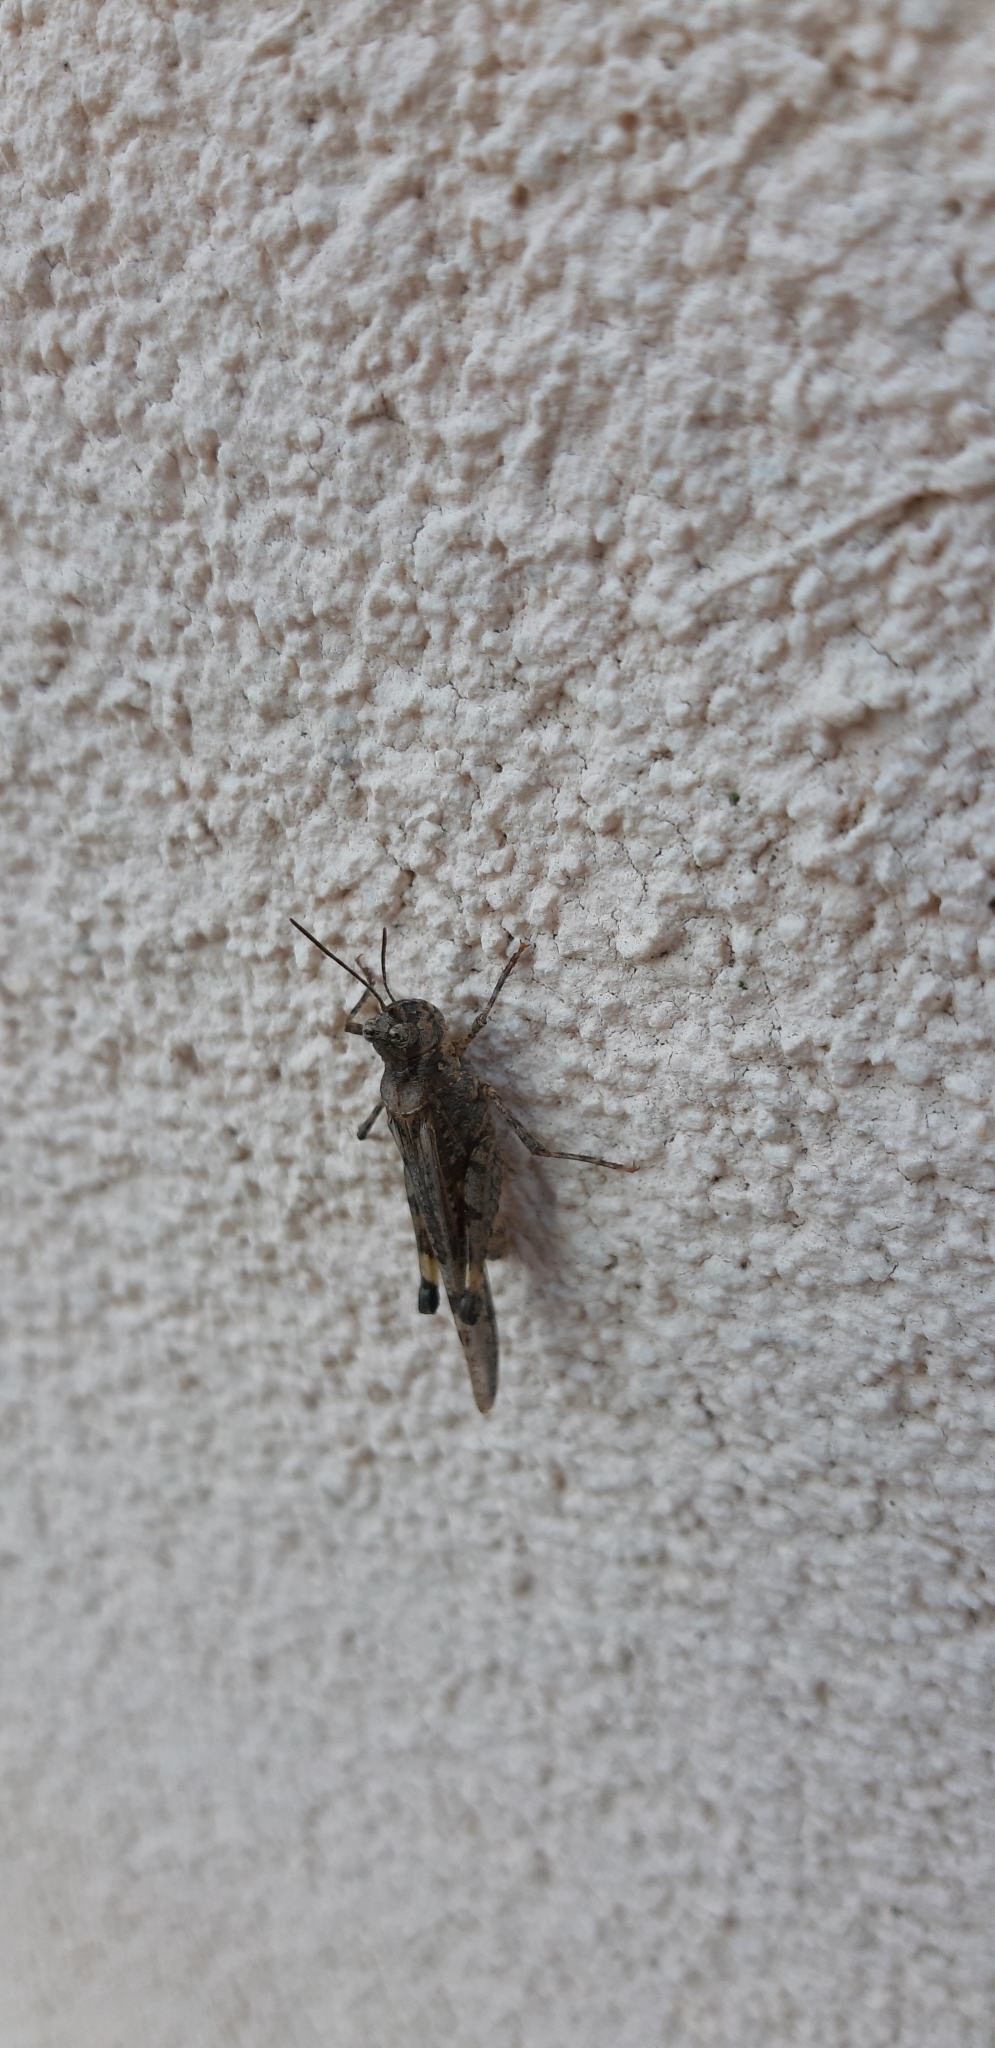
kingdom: Animalia
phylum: Arthropoda
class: Insecta
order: Orthoptera
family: Acrididae
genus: Acrotylus
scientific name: Acrotylus insubricus
